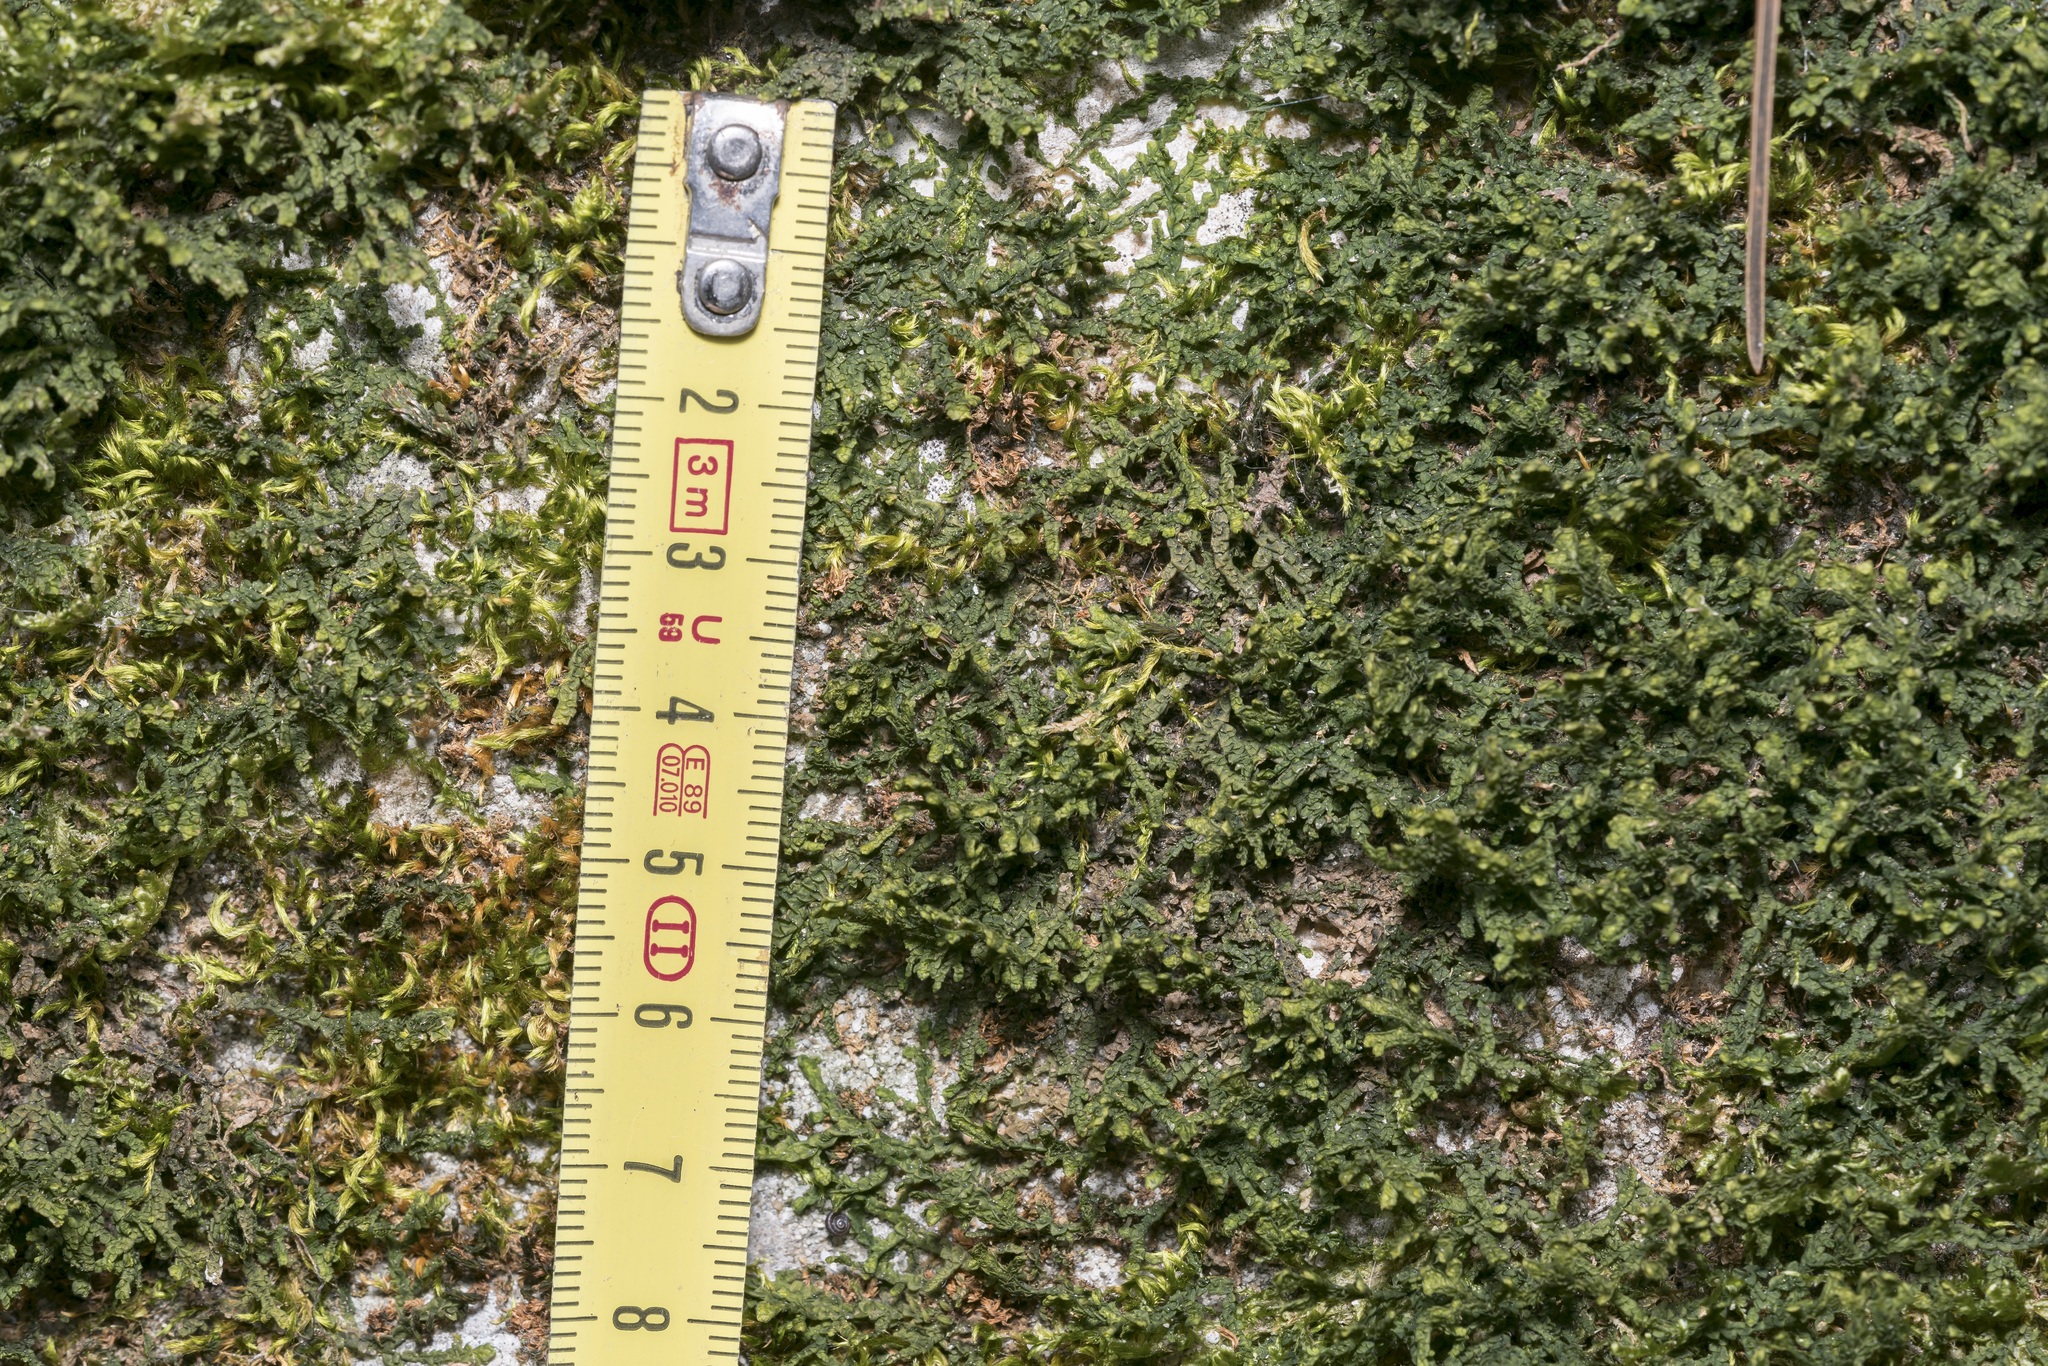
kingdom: Plantae
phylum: Marchantiophyta
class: Jungermanniopsida
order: Porellales
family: Porellaceae
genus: Porella
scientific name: Porella platyphylla
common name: Wall scalewort
